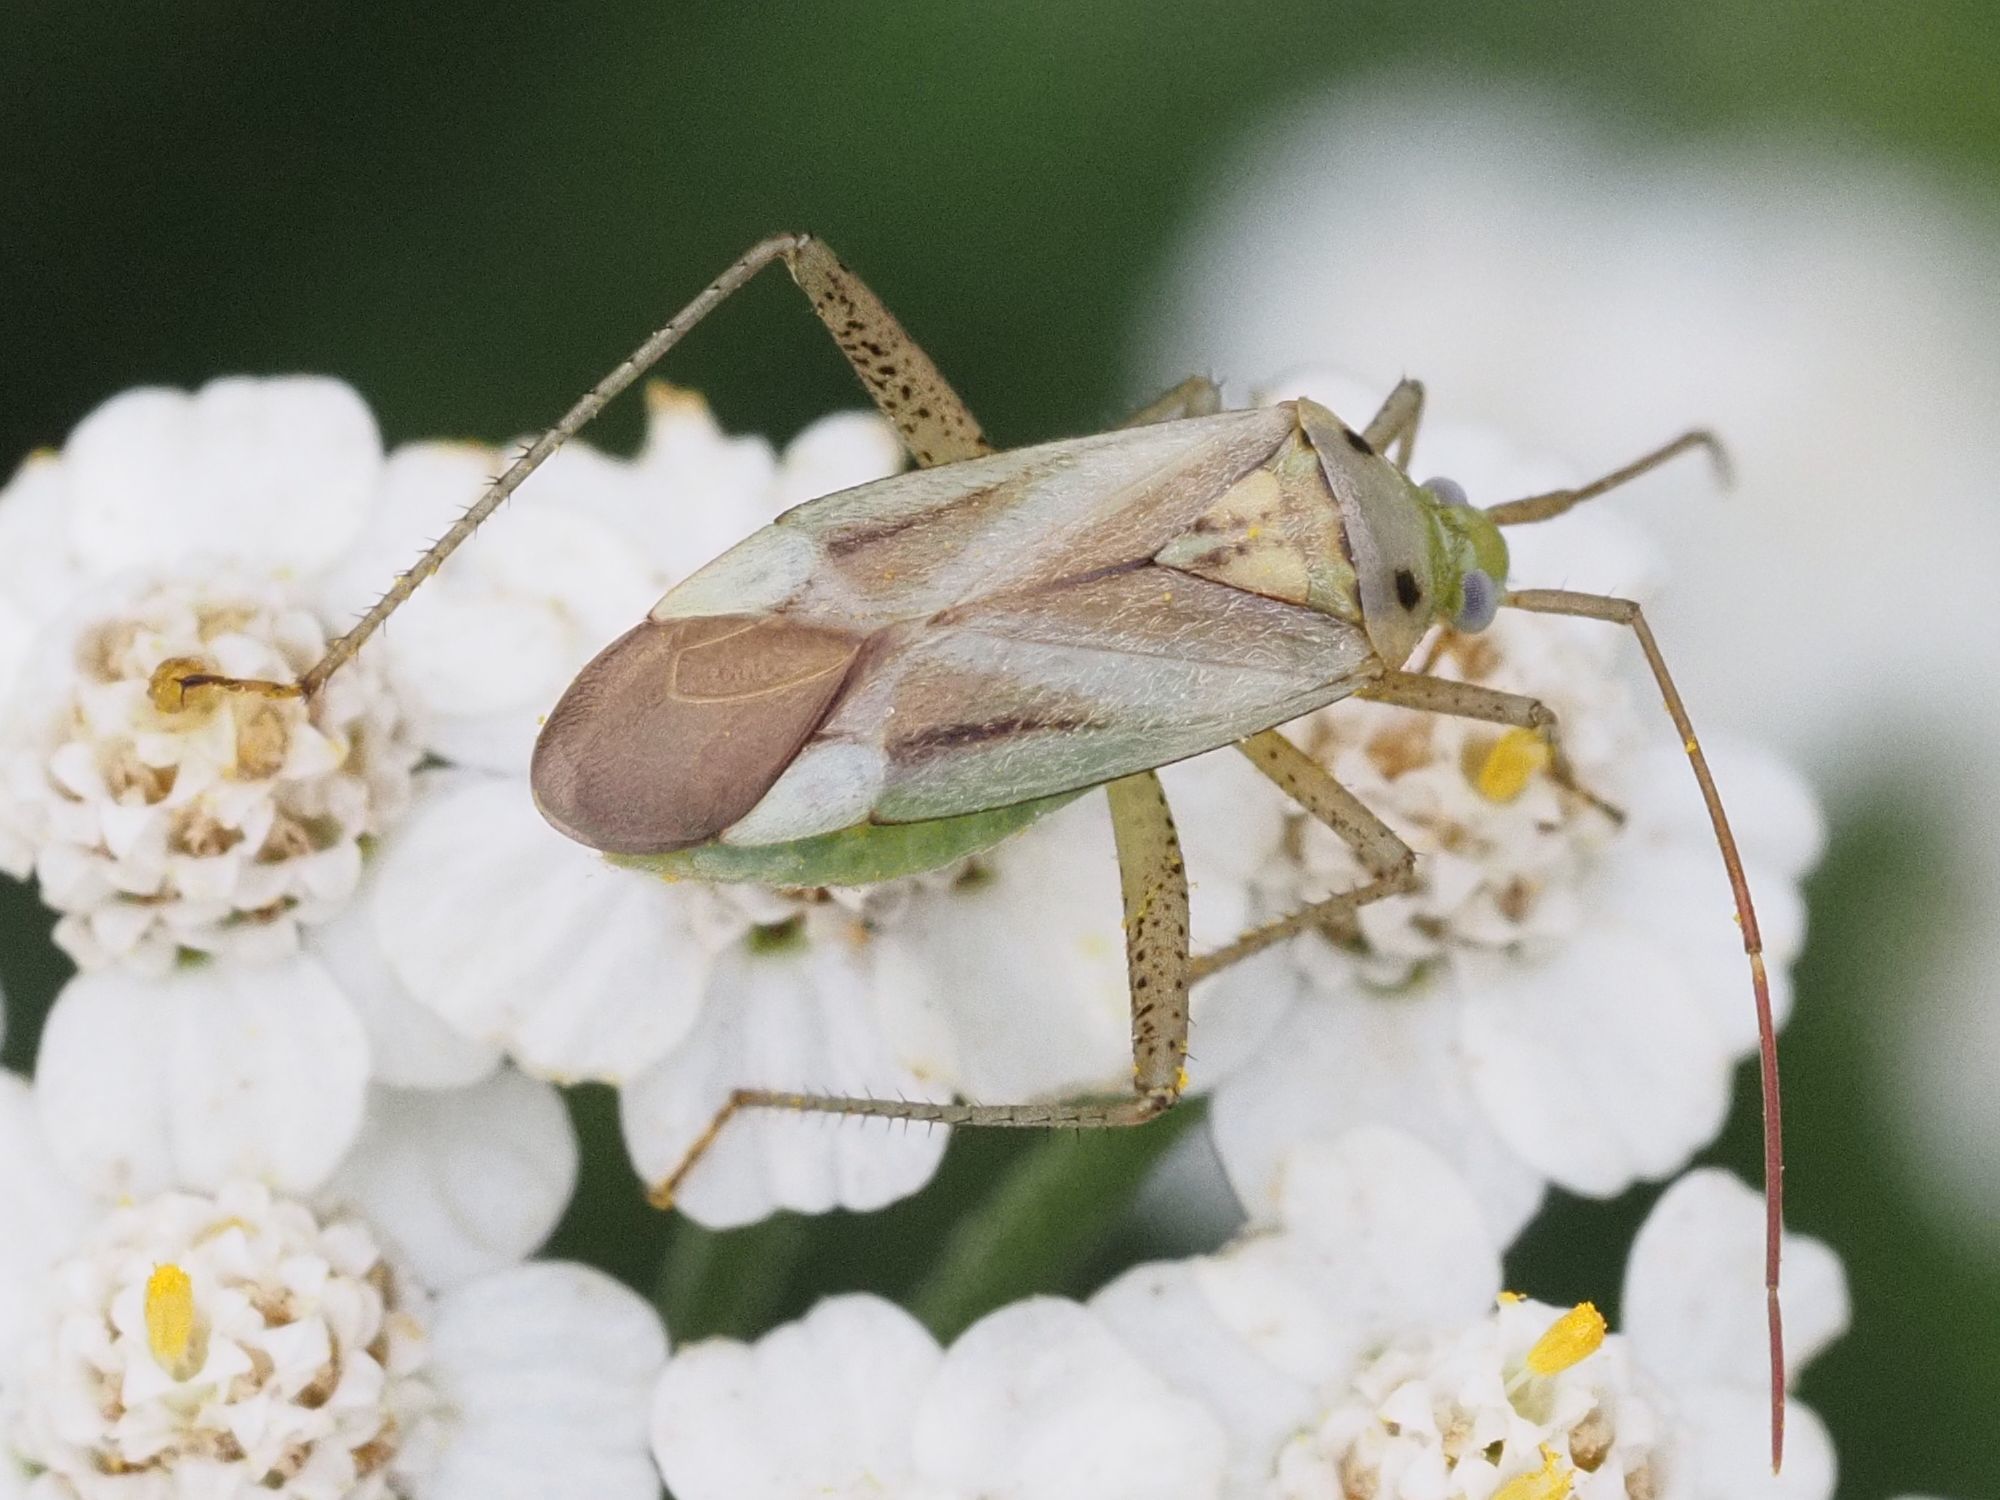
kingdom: Animalia
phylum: Arthropoda
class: Insecta
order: Hemiptera
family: Miridae
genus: Adelphocoris
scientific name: Adelphocoris lineolatus
